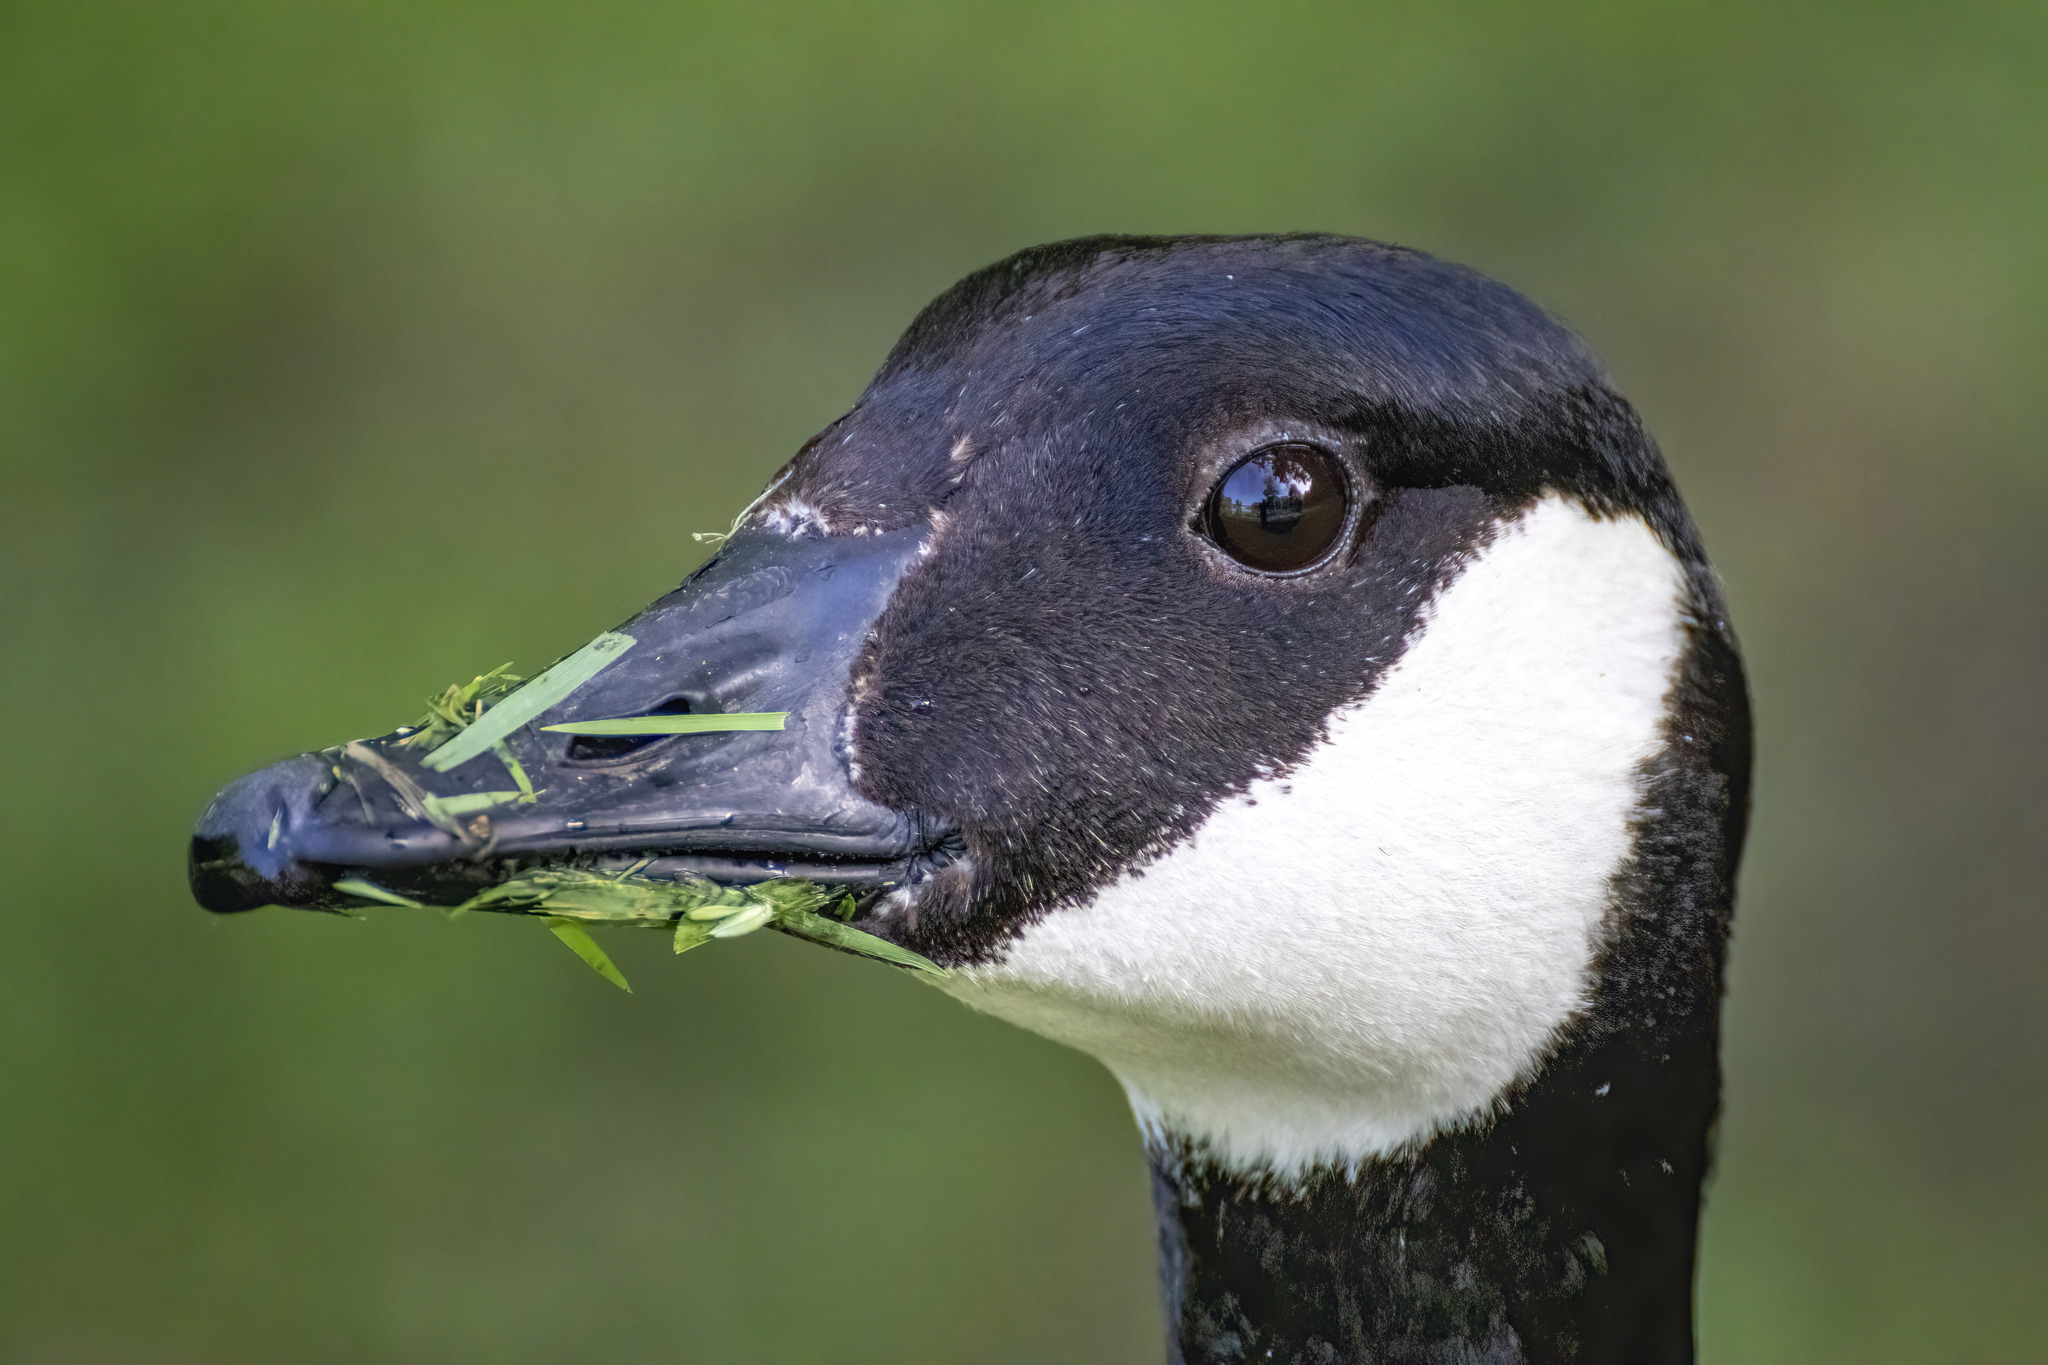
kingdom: Animalia
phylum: Chordata
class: Aves
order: Anseriformes
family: Anatidae
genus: Branta
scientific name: Branta canadensis
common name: Canada goose
